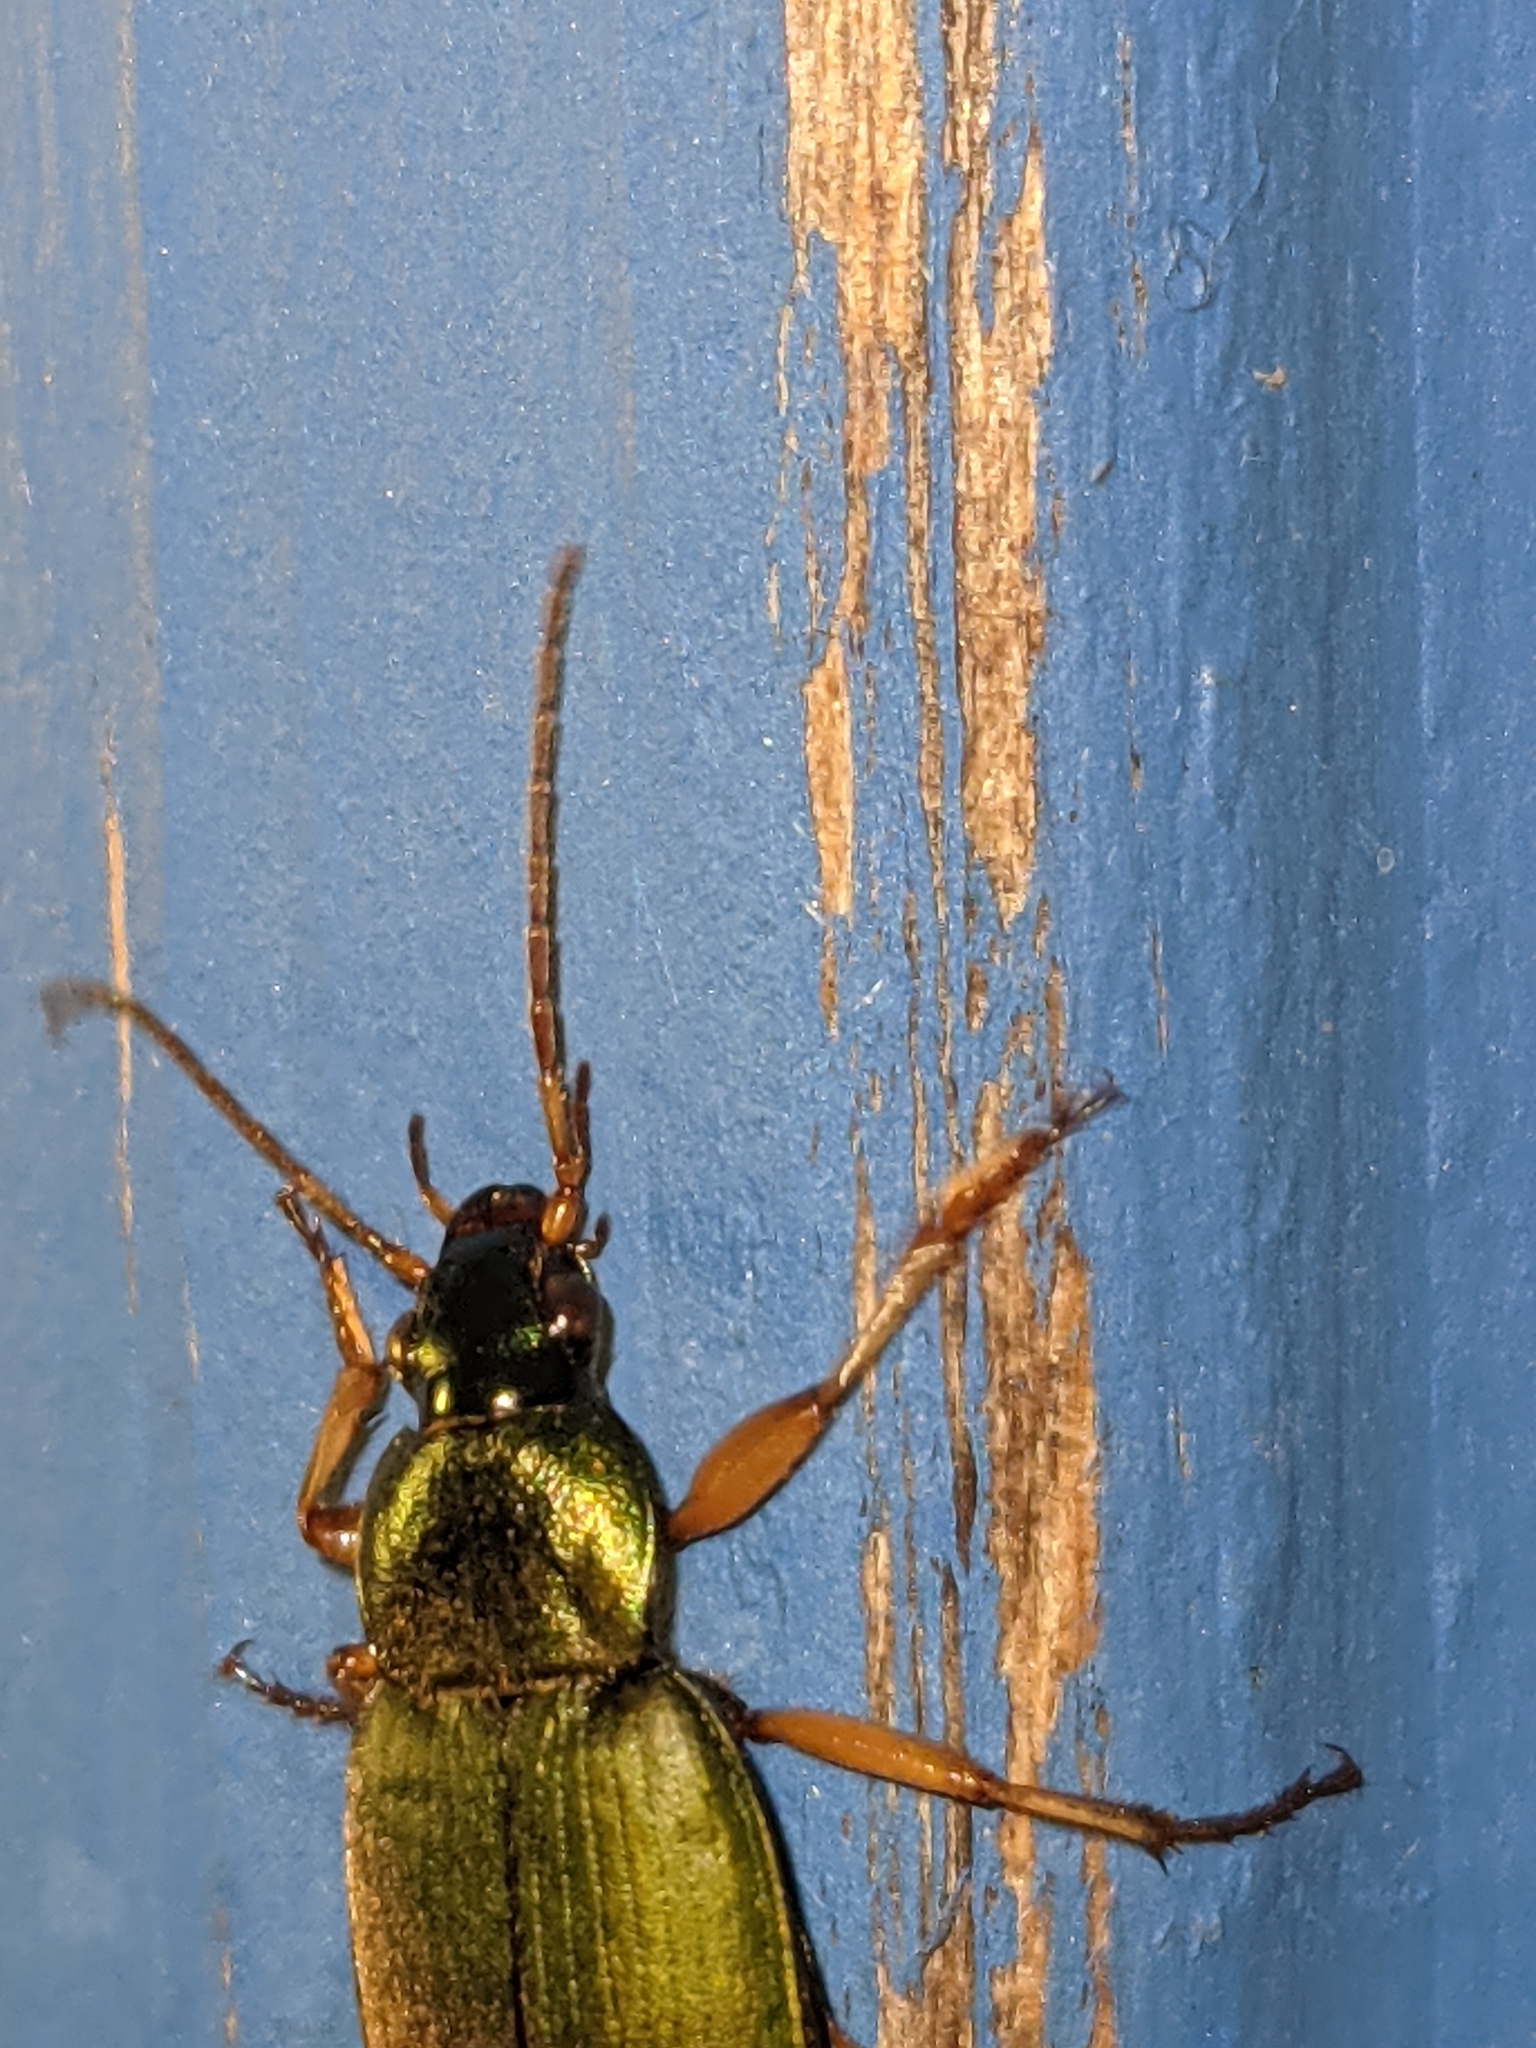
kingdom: Animalia
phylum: Arthropoda
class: Insecta
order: Coleoptera
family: Carabidae
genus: Chlaenius
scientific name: Chlaenius sericeus
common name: Green pubescent ground beetle
